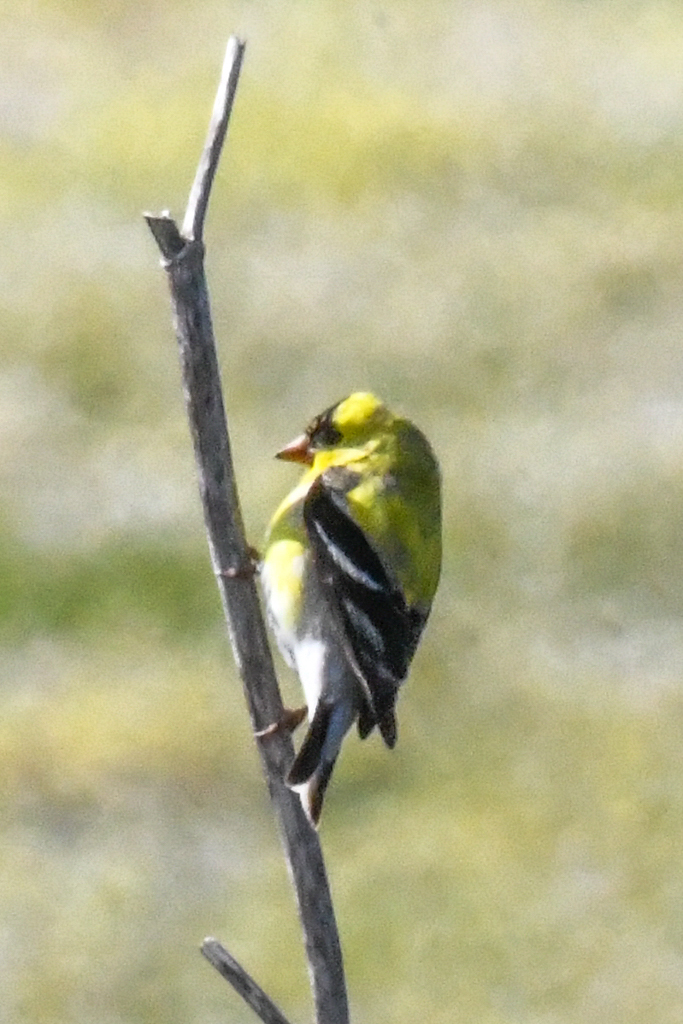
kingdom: Animalia
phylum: Chordata
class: Aves
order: Passeriformes
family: Fringillidae
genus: Spinus
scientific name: Spinus tristis
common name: American goldfinch
